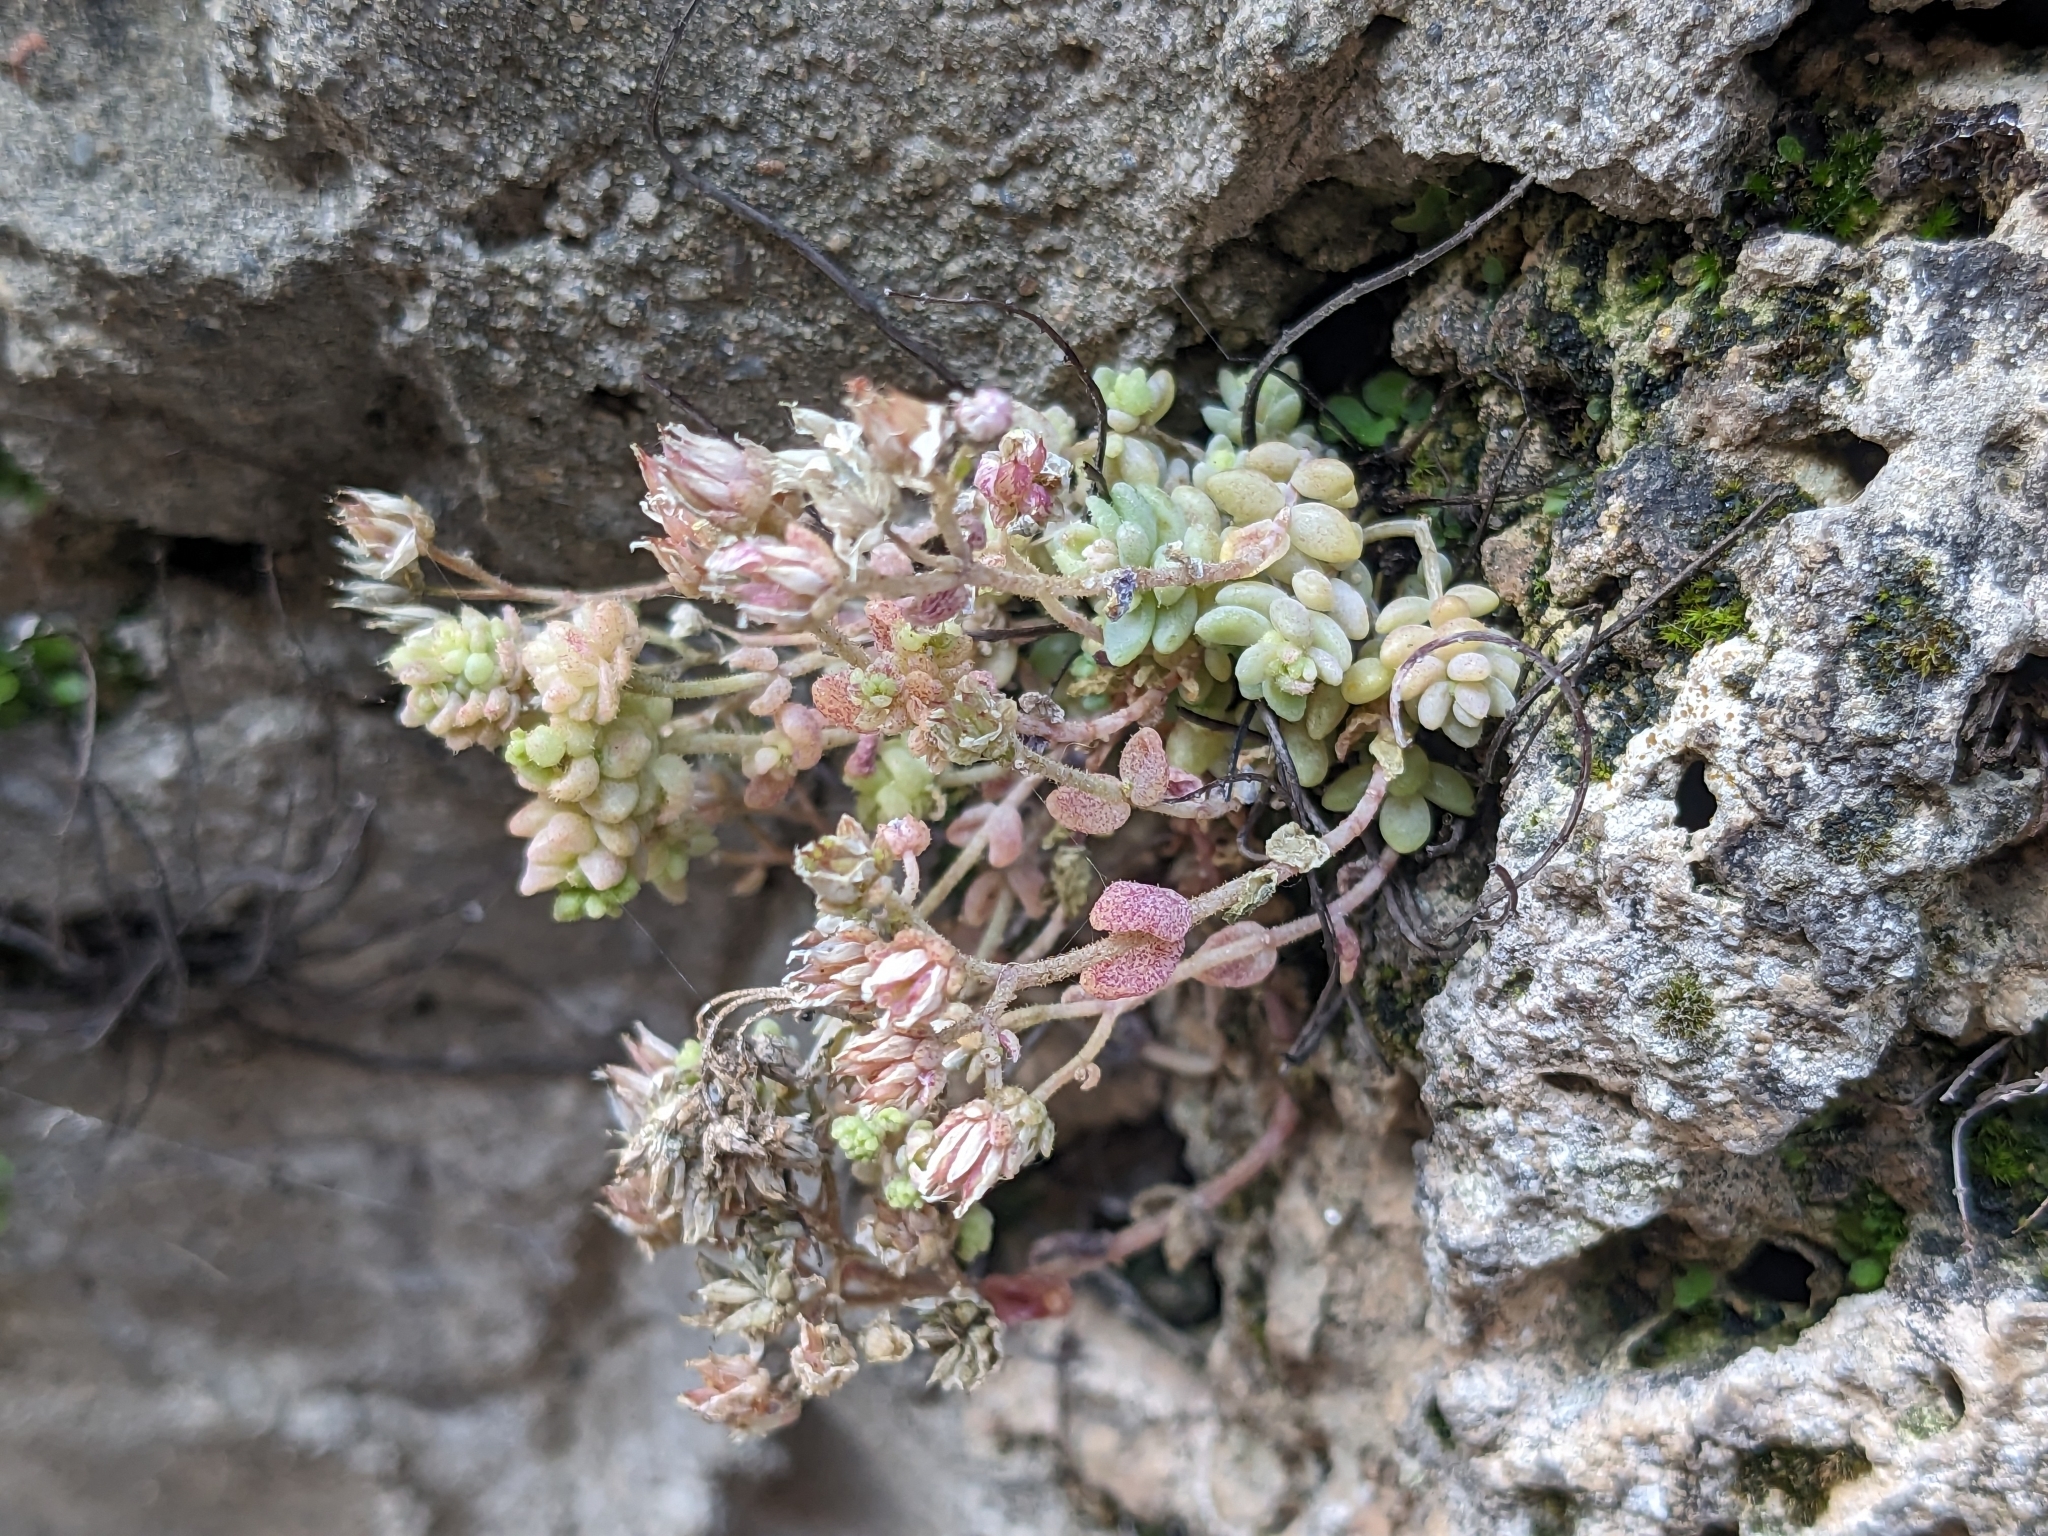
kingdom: Plantae
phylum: Tracheophyta
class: Magnoliopsida
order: Saxifragales
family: Crassulaceae
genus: Sedum
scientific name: Sedum dasyphyllum
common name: Thick-leaf stonecrop
